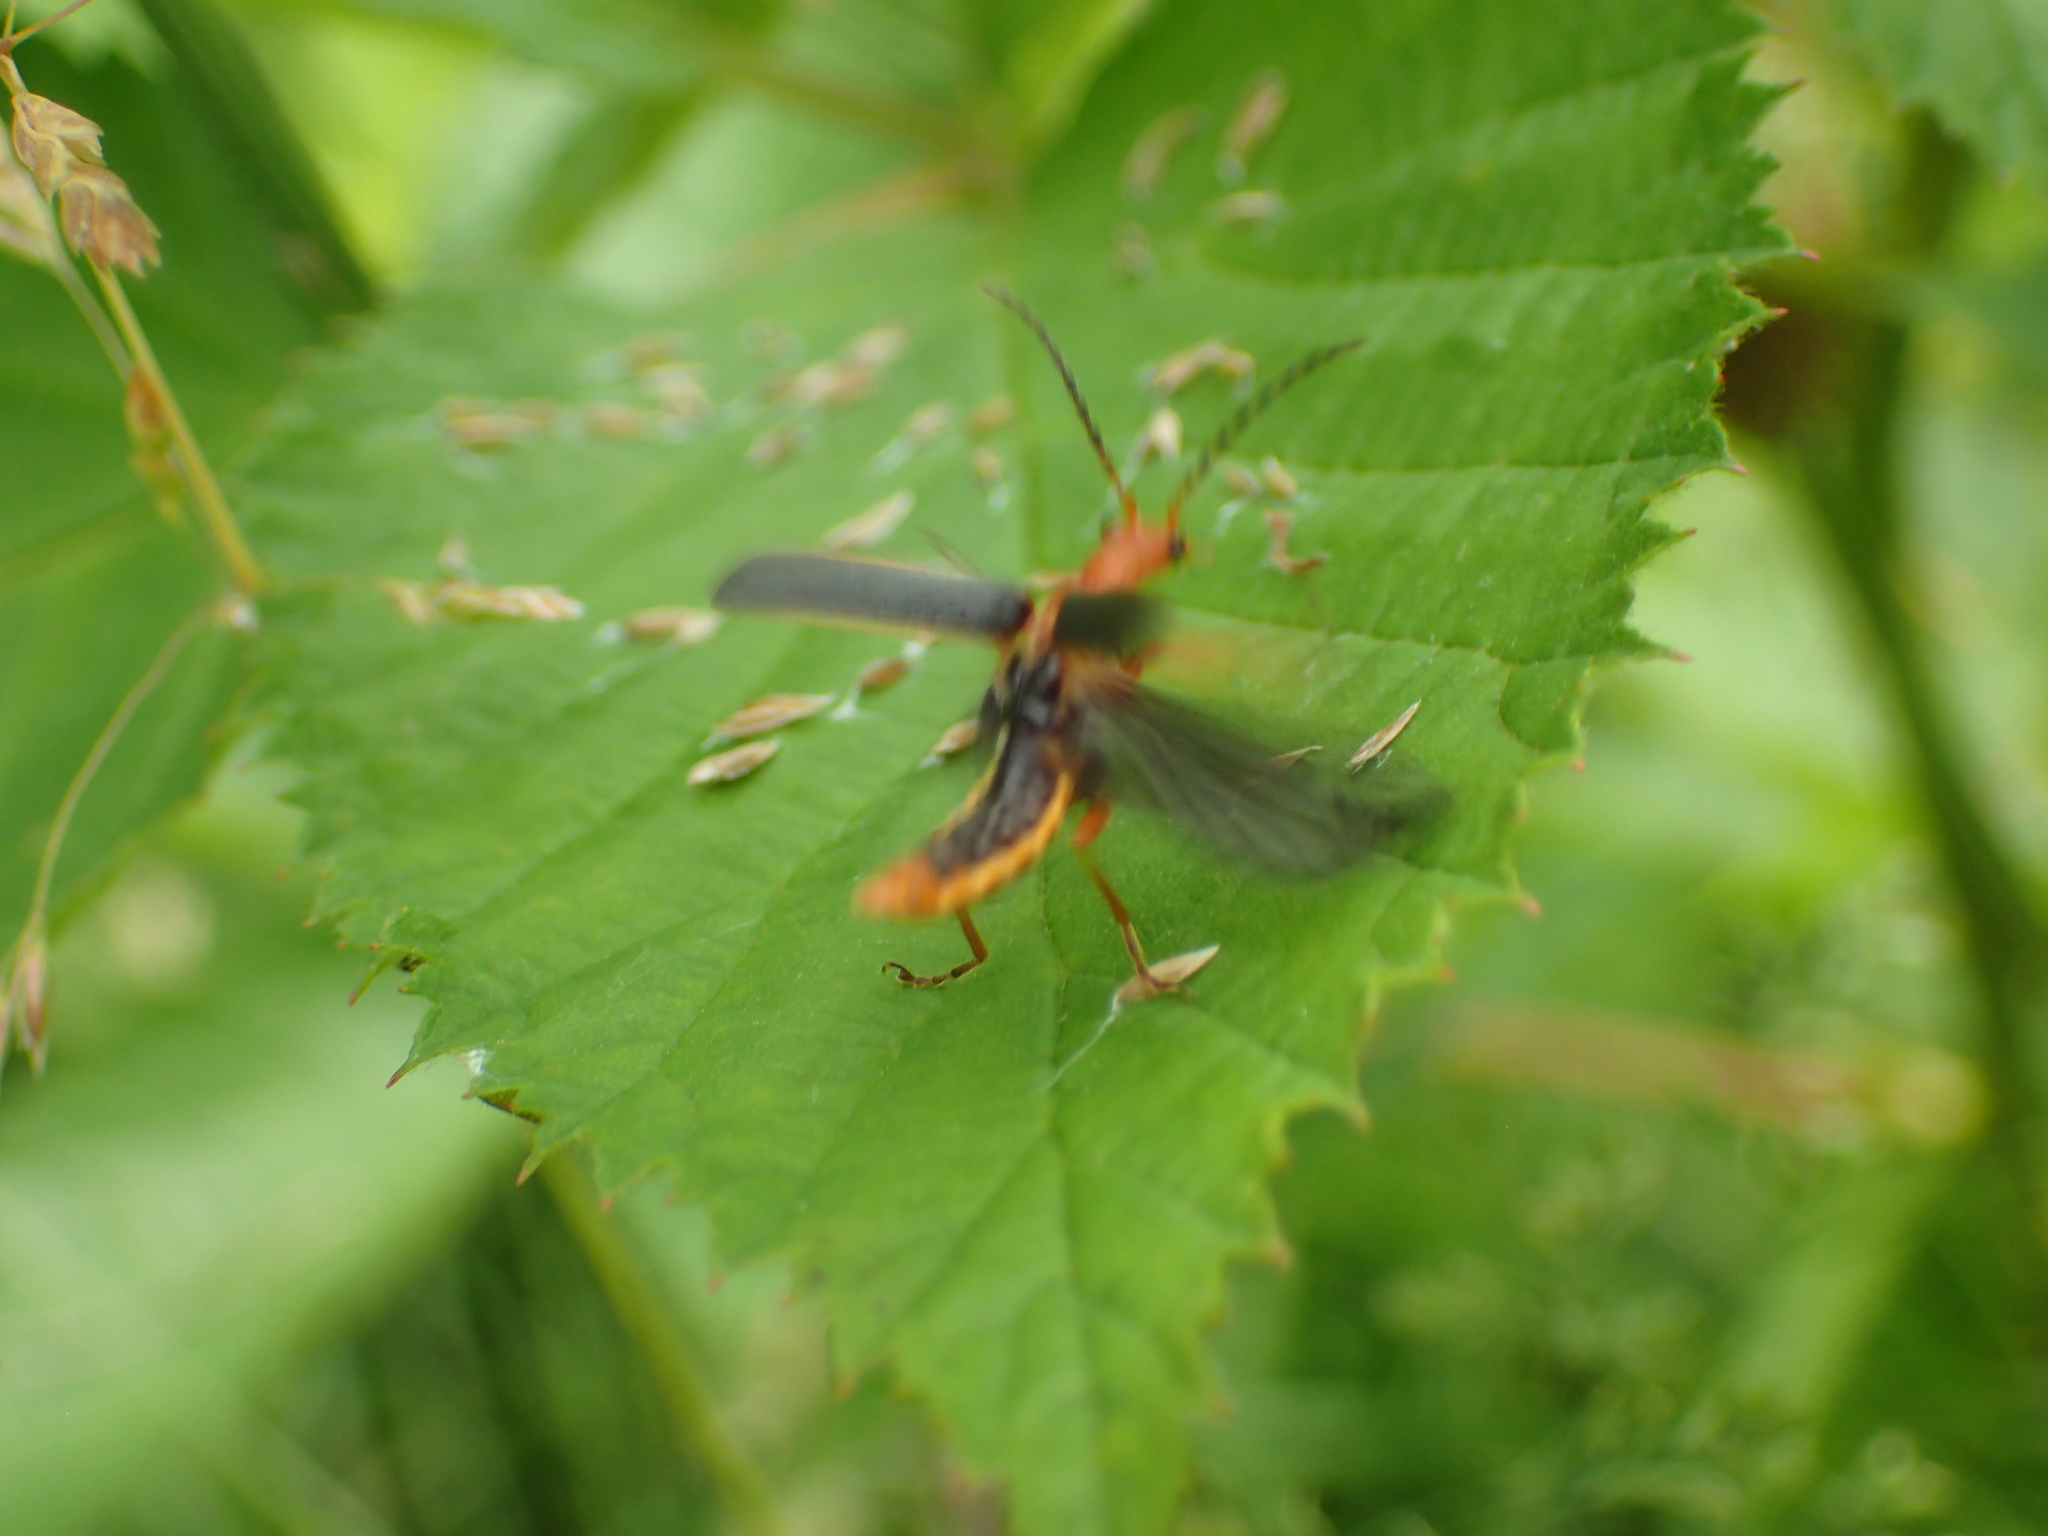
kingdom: Animalia
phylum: Arthropoda
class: Insecta
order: Coleoptera
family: Cantharidae
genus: Podabrus
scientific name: Podabrus tomentosus
